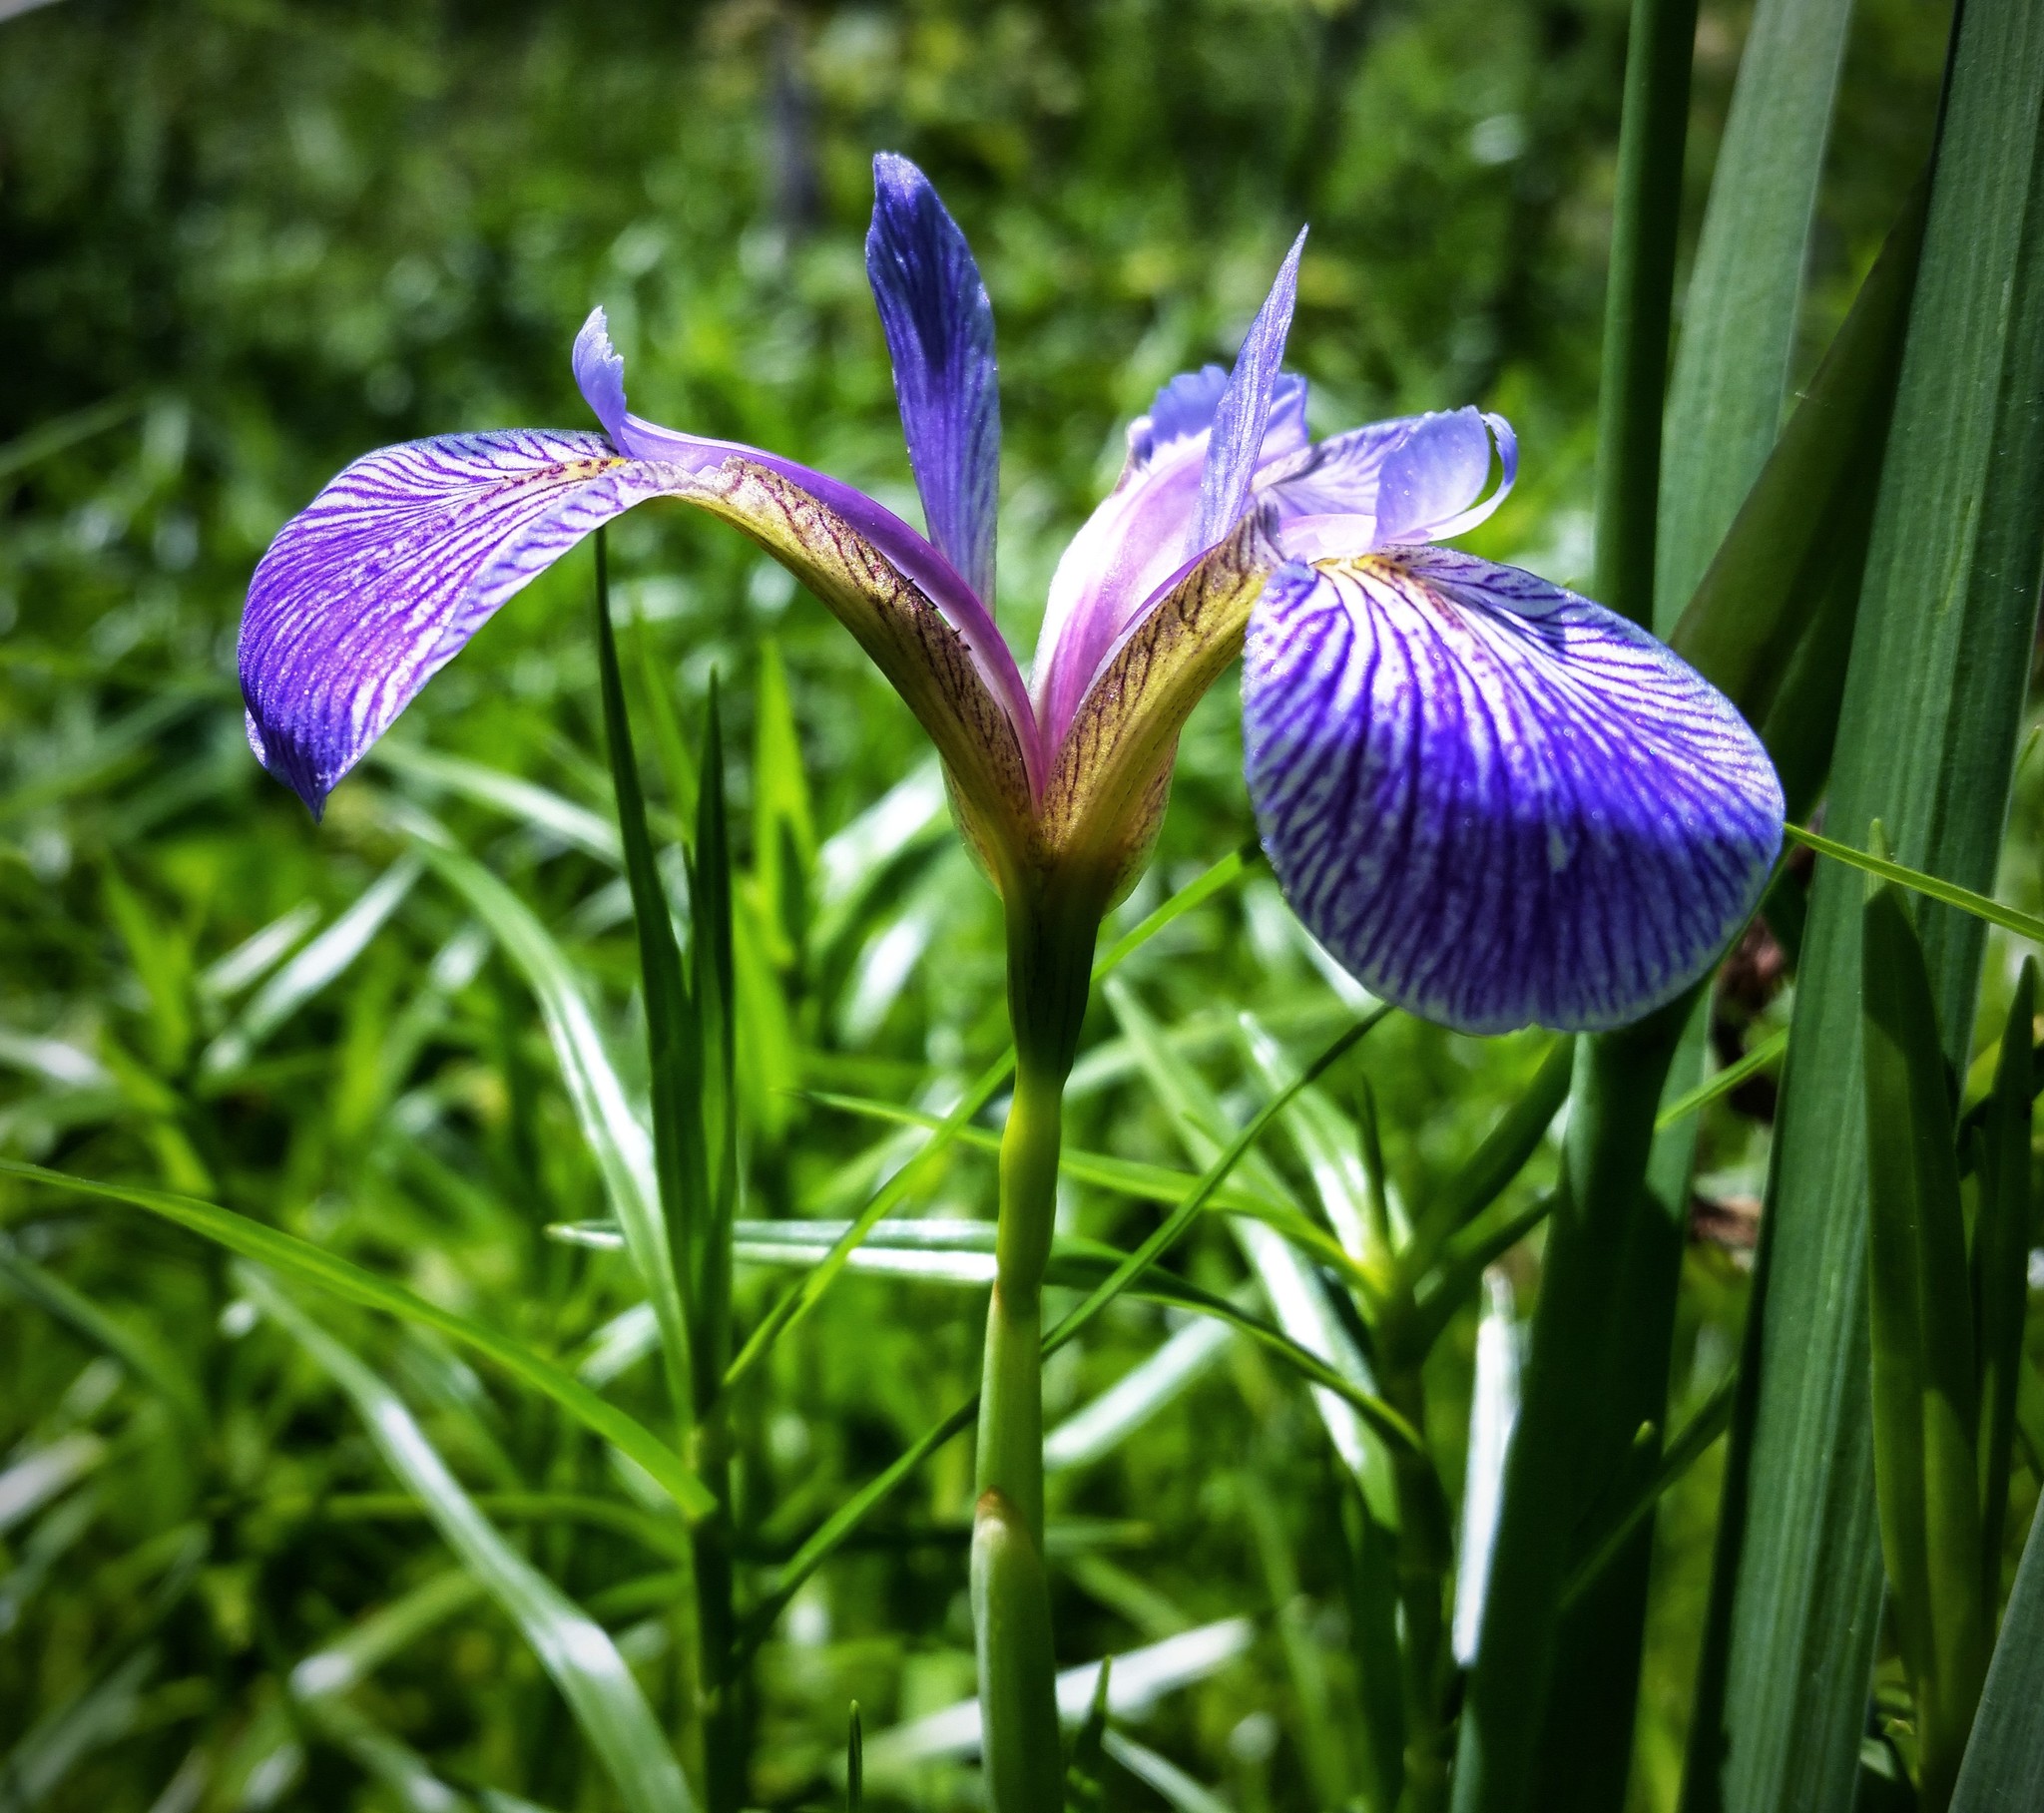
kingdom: Plantae
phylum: Tracheophyta
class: Liliopsida
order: Asparagales
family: Iridaceae
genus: Iris
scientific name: Iris versicolor
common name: Purple iris
